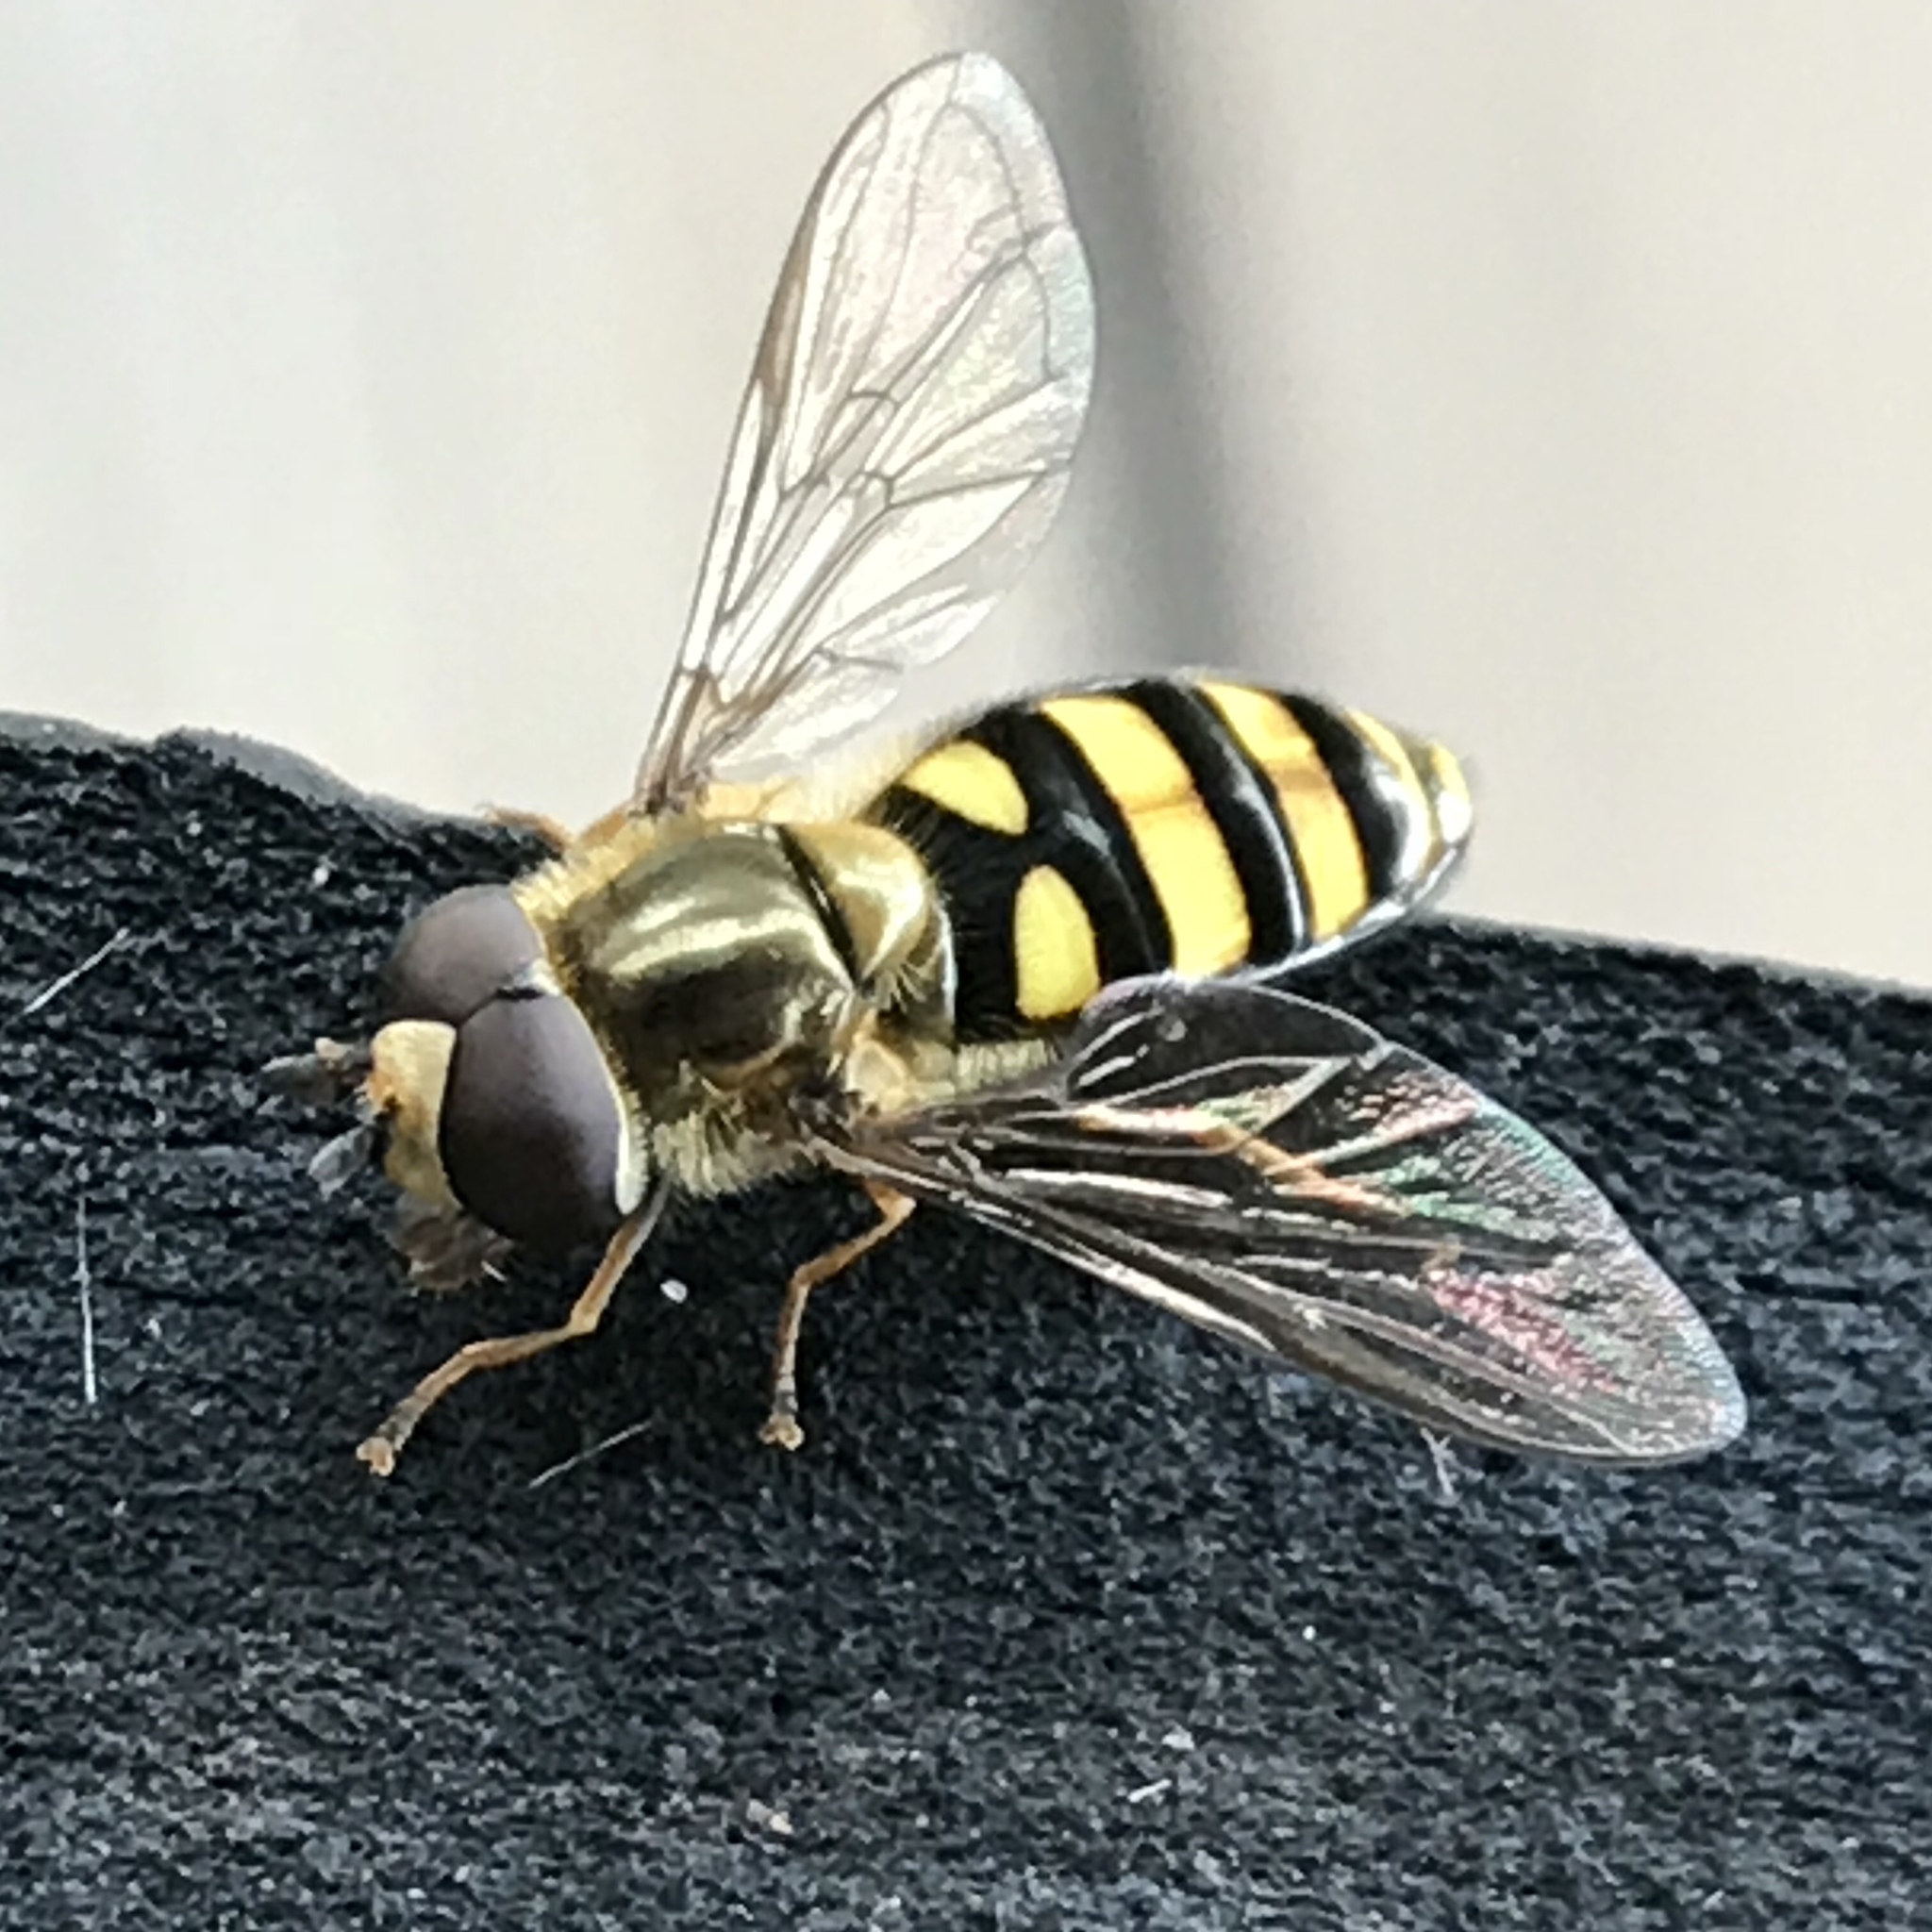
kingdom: Animalia
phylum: Arthropoda
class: Insecta
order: Diptera
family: Syrphidae
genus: Eupeodes
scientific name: Eupeodes
